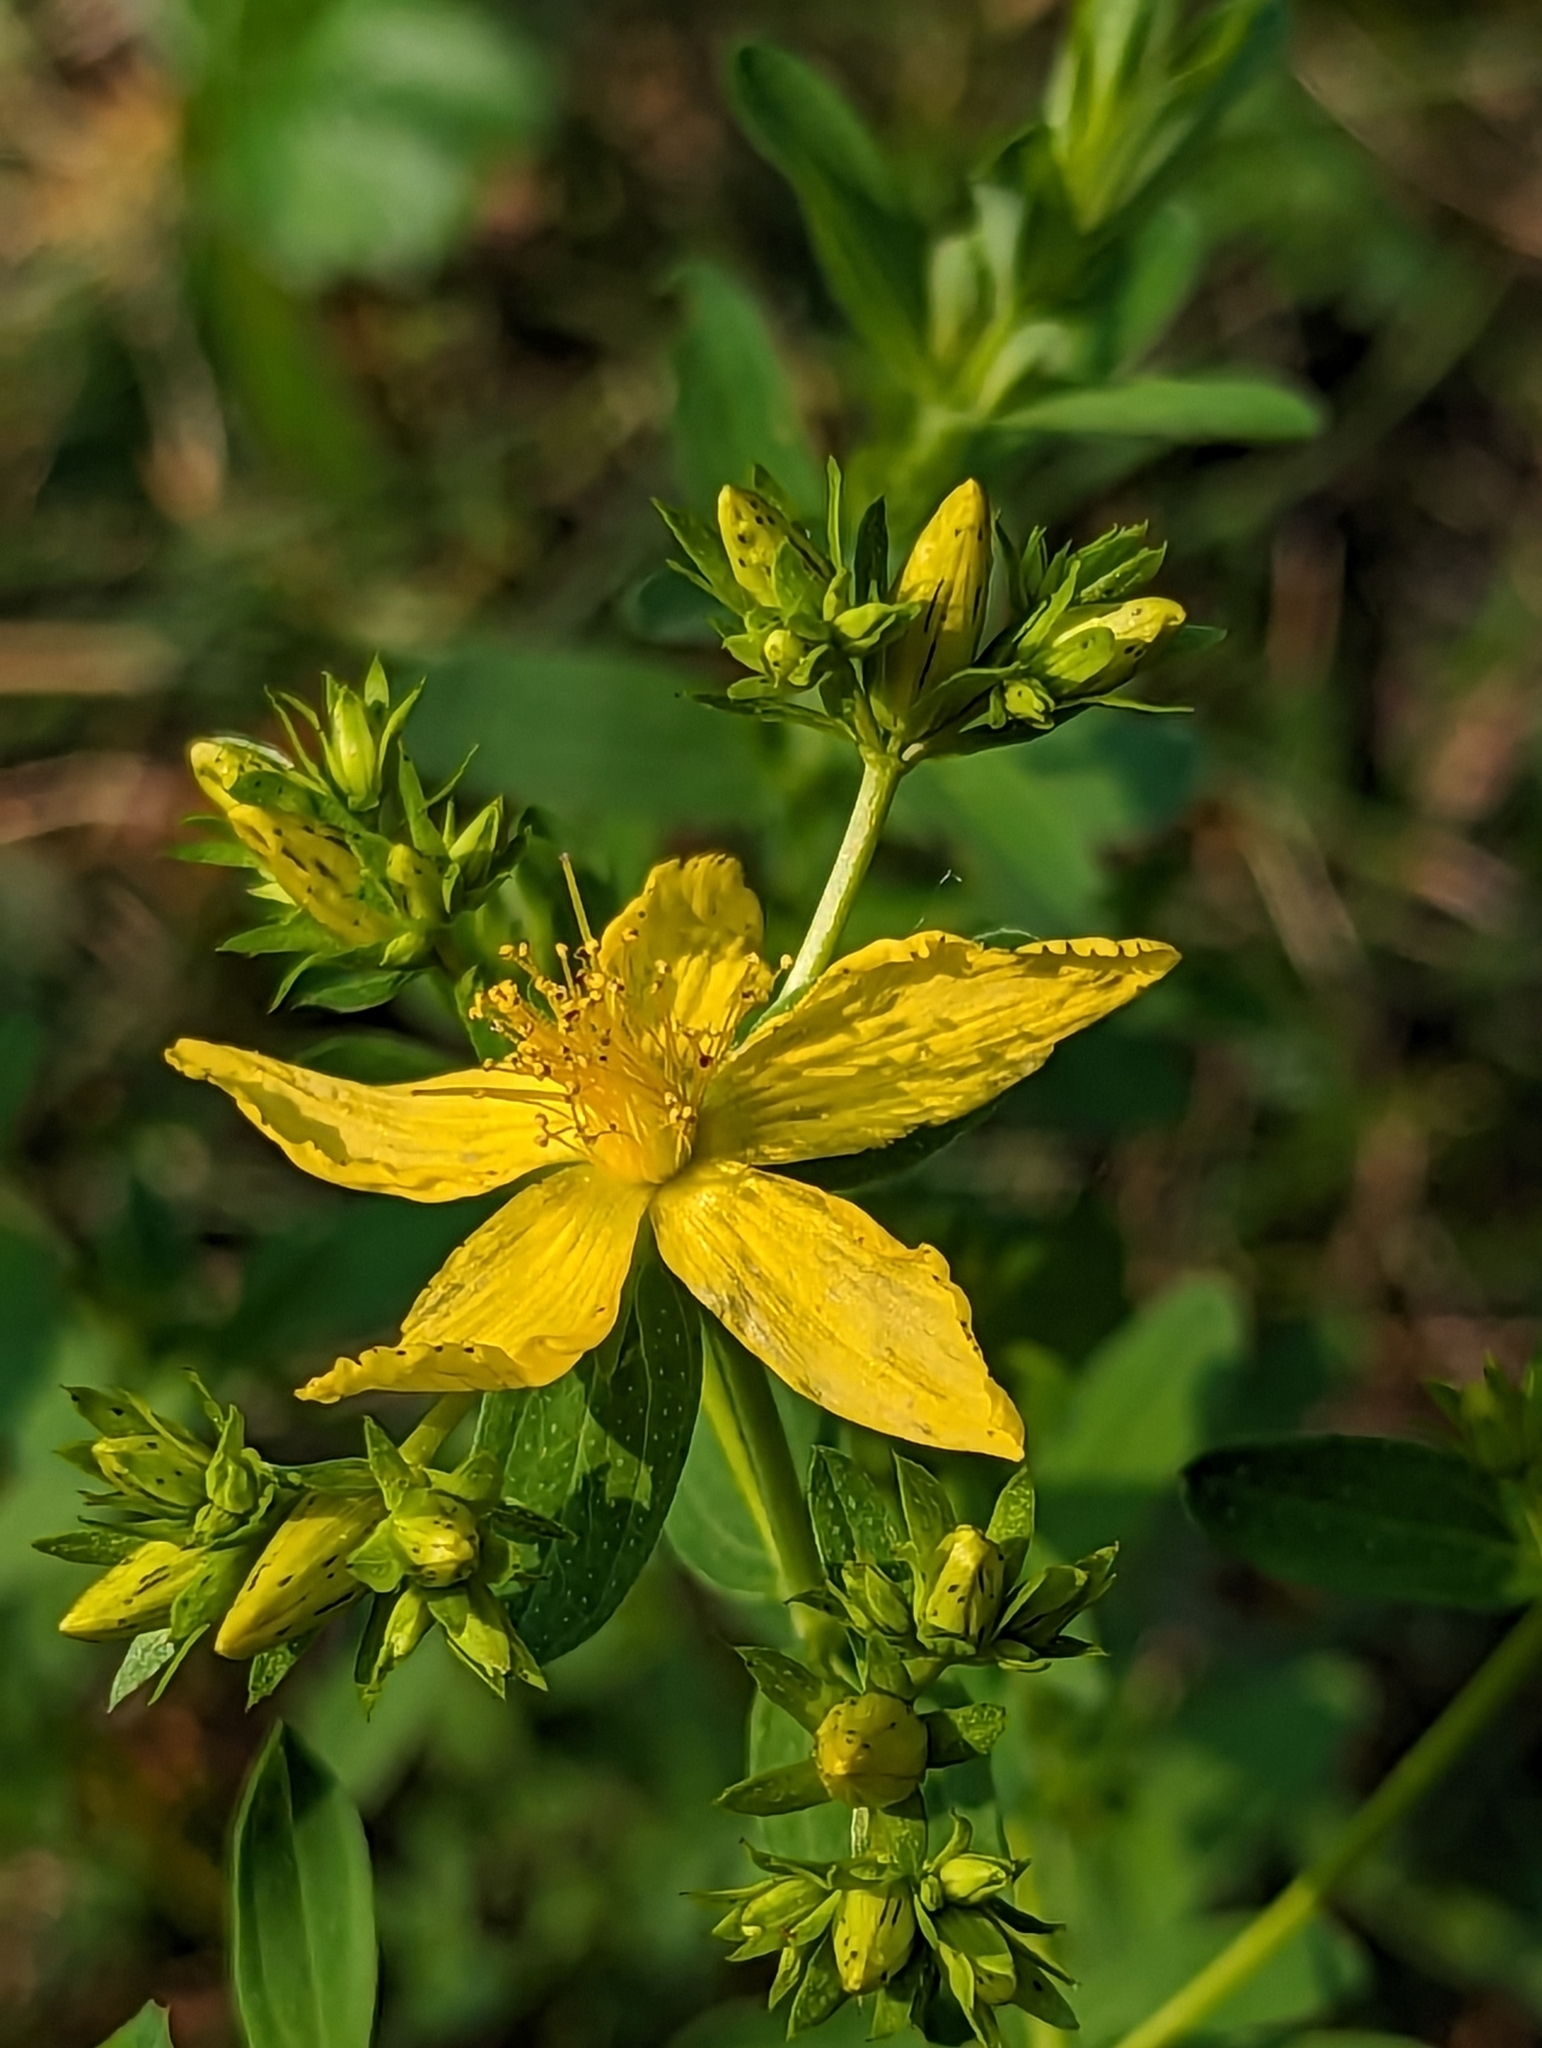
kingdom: Plantae
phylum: Tracheophyta
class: Magnoliopsida
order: Malpighiales
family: Hypericaceae
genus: Hypericum
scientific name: Hypericum perforatum
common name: Common st. johnswort
